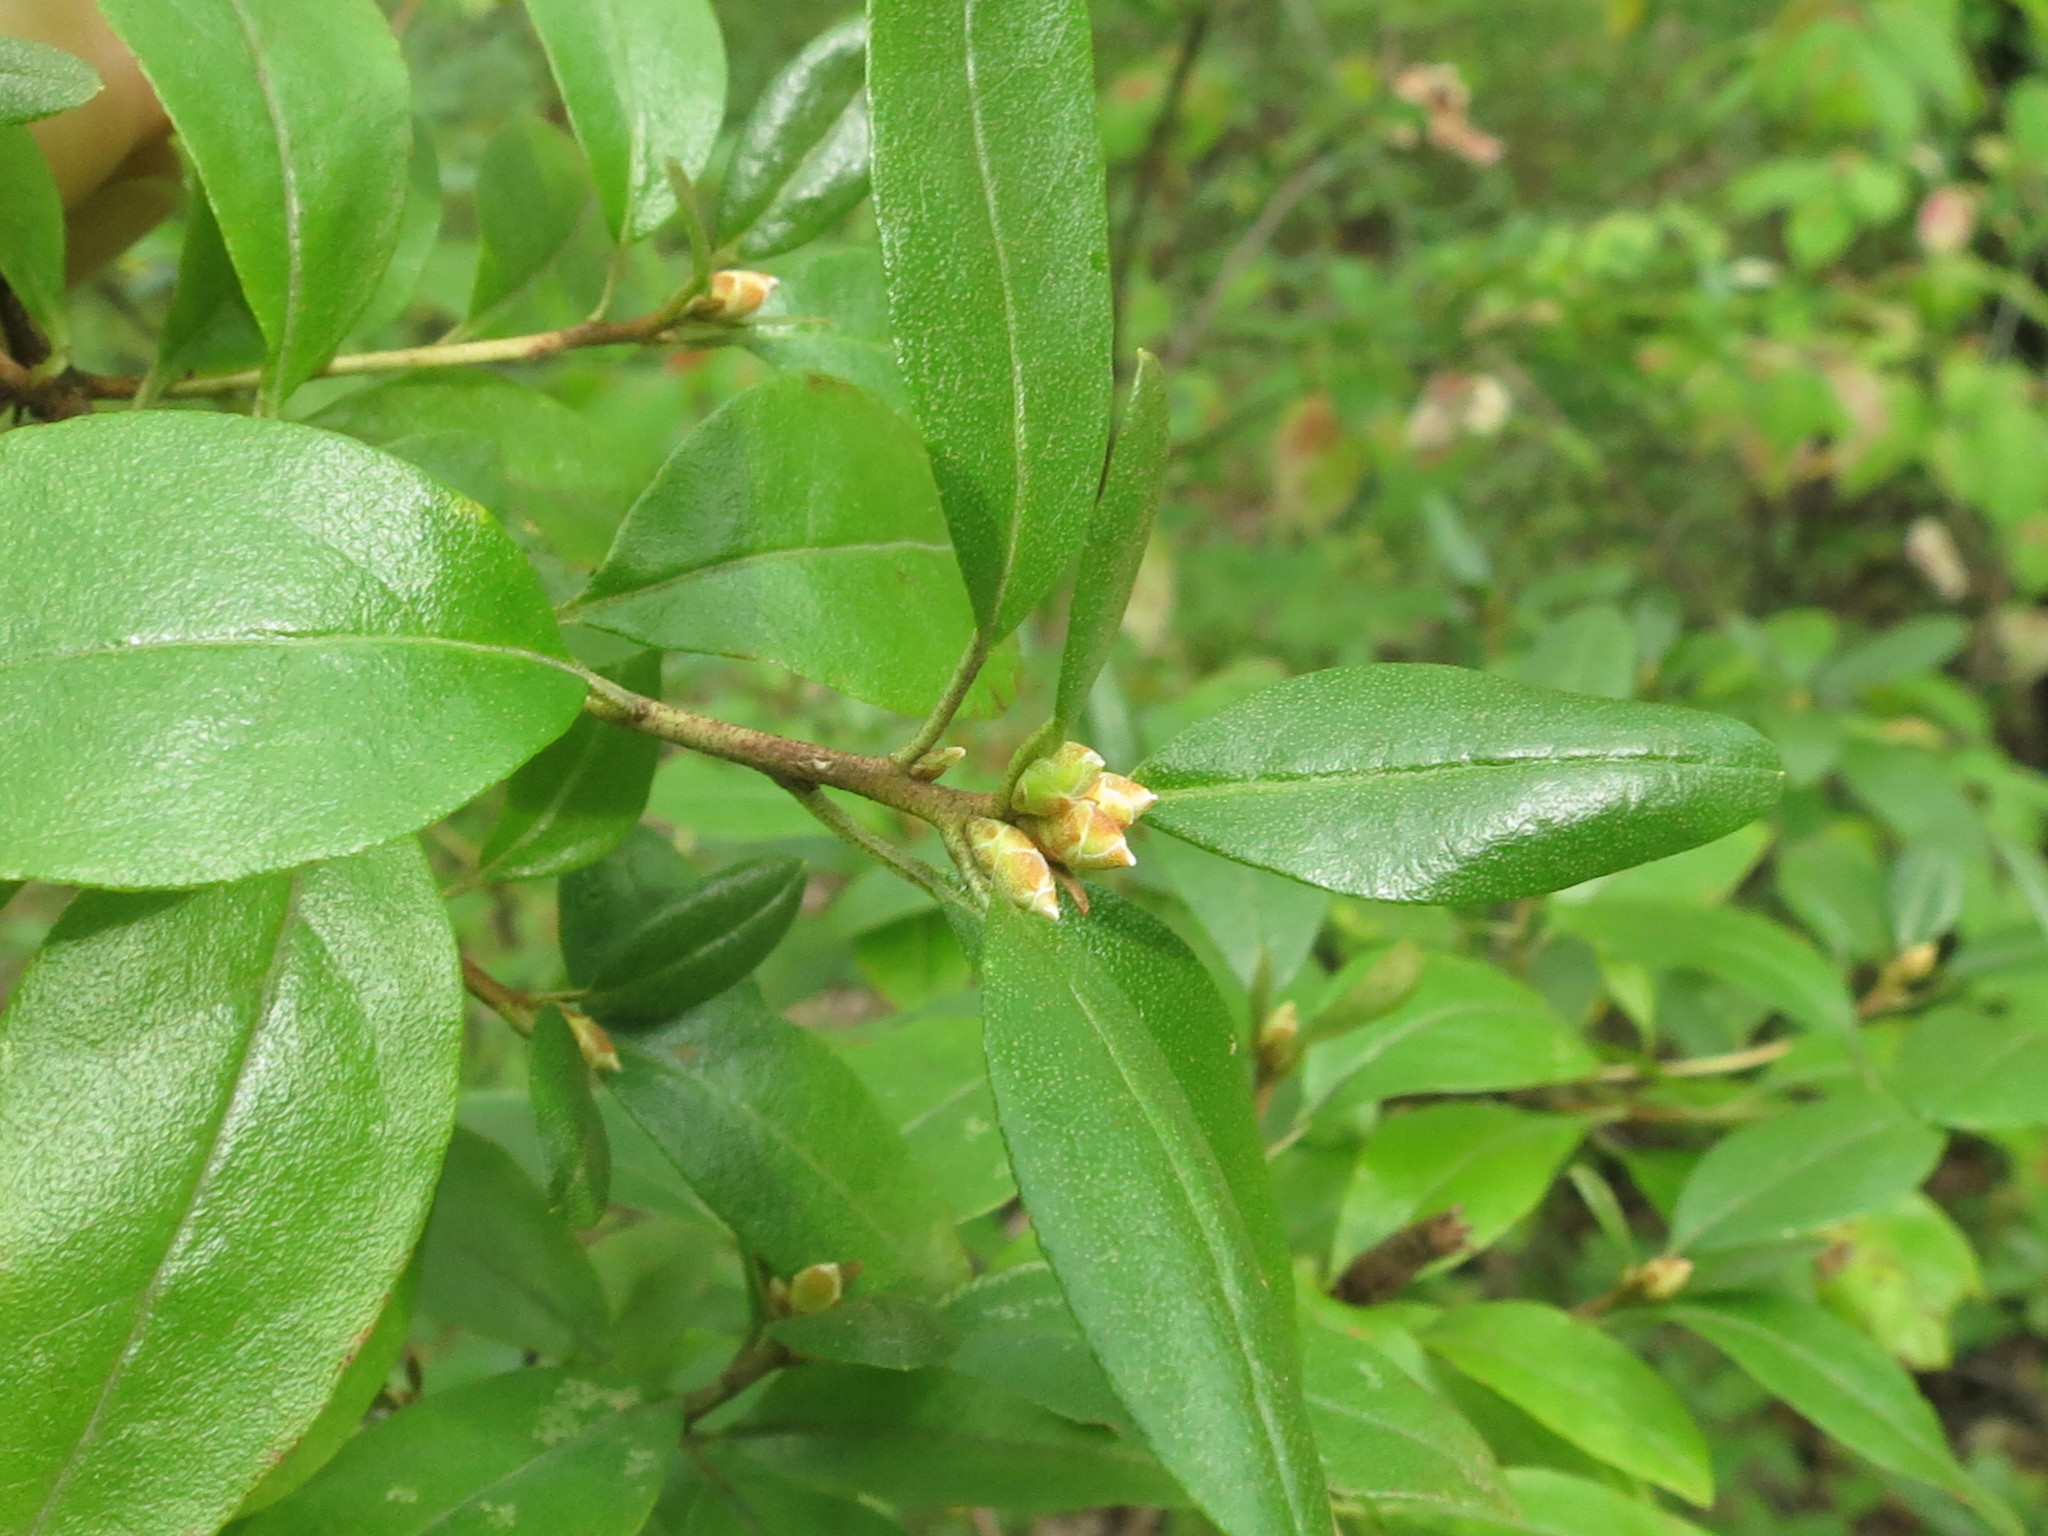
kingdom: Plantae
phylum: Tracheophyta
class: Magnoliopsida
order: Ericales
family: Ericaceae
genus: Rhododendron
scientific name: Rhododendron mucronulatum
